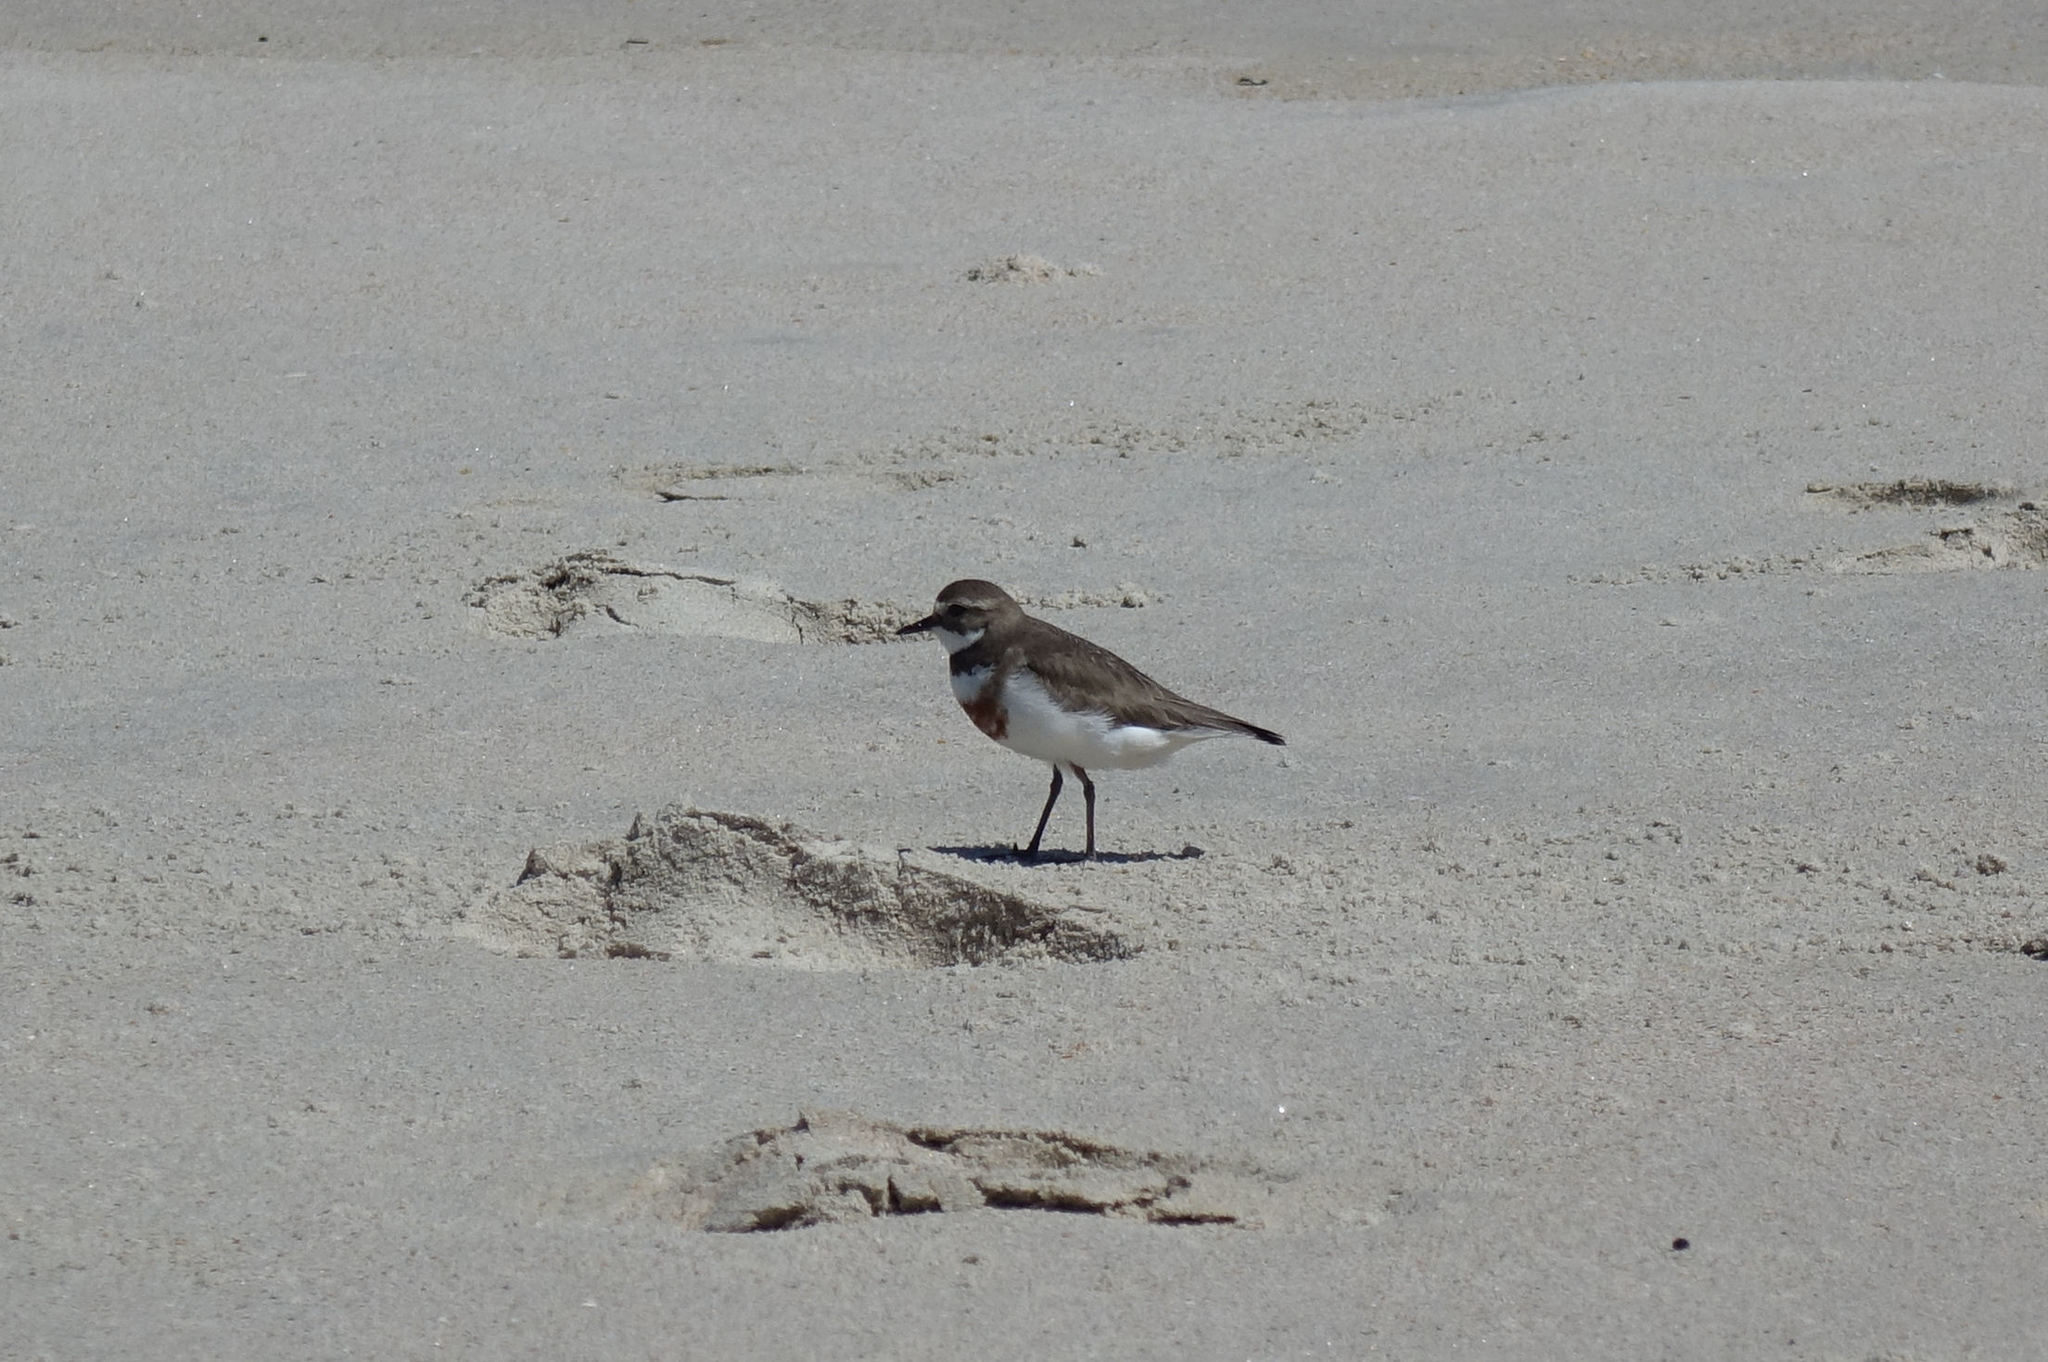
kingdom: Animalia
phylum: Chordata
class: Aves
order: Charadriiformes
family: Charadriidae
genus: Anarhynchus
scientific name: Anarhynchus
